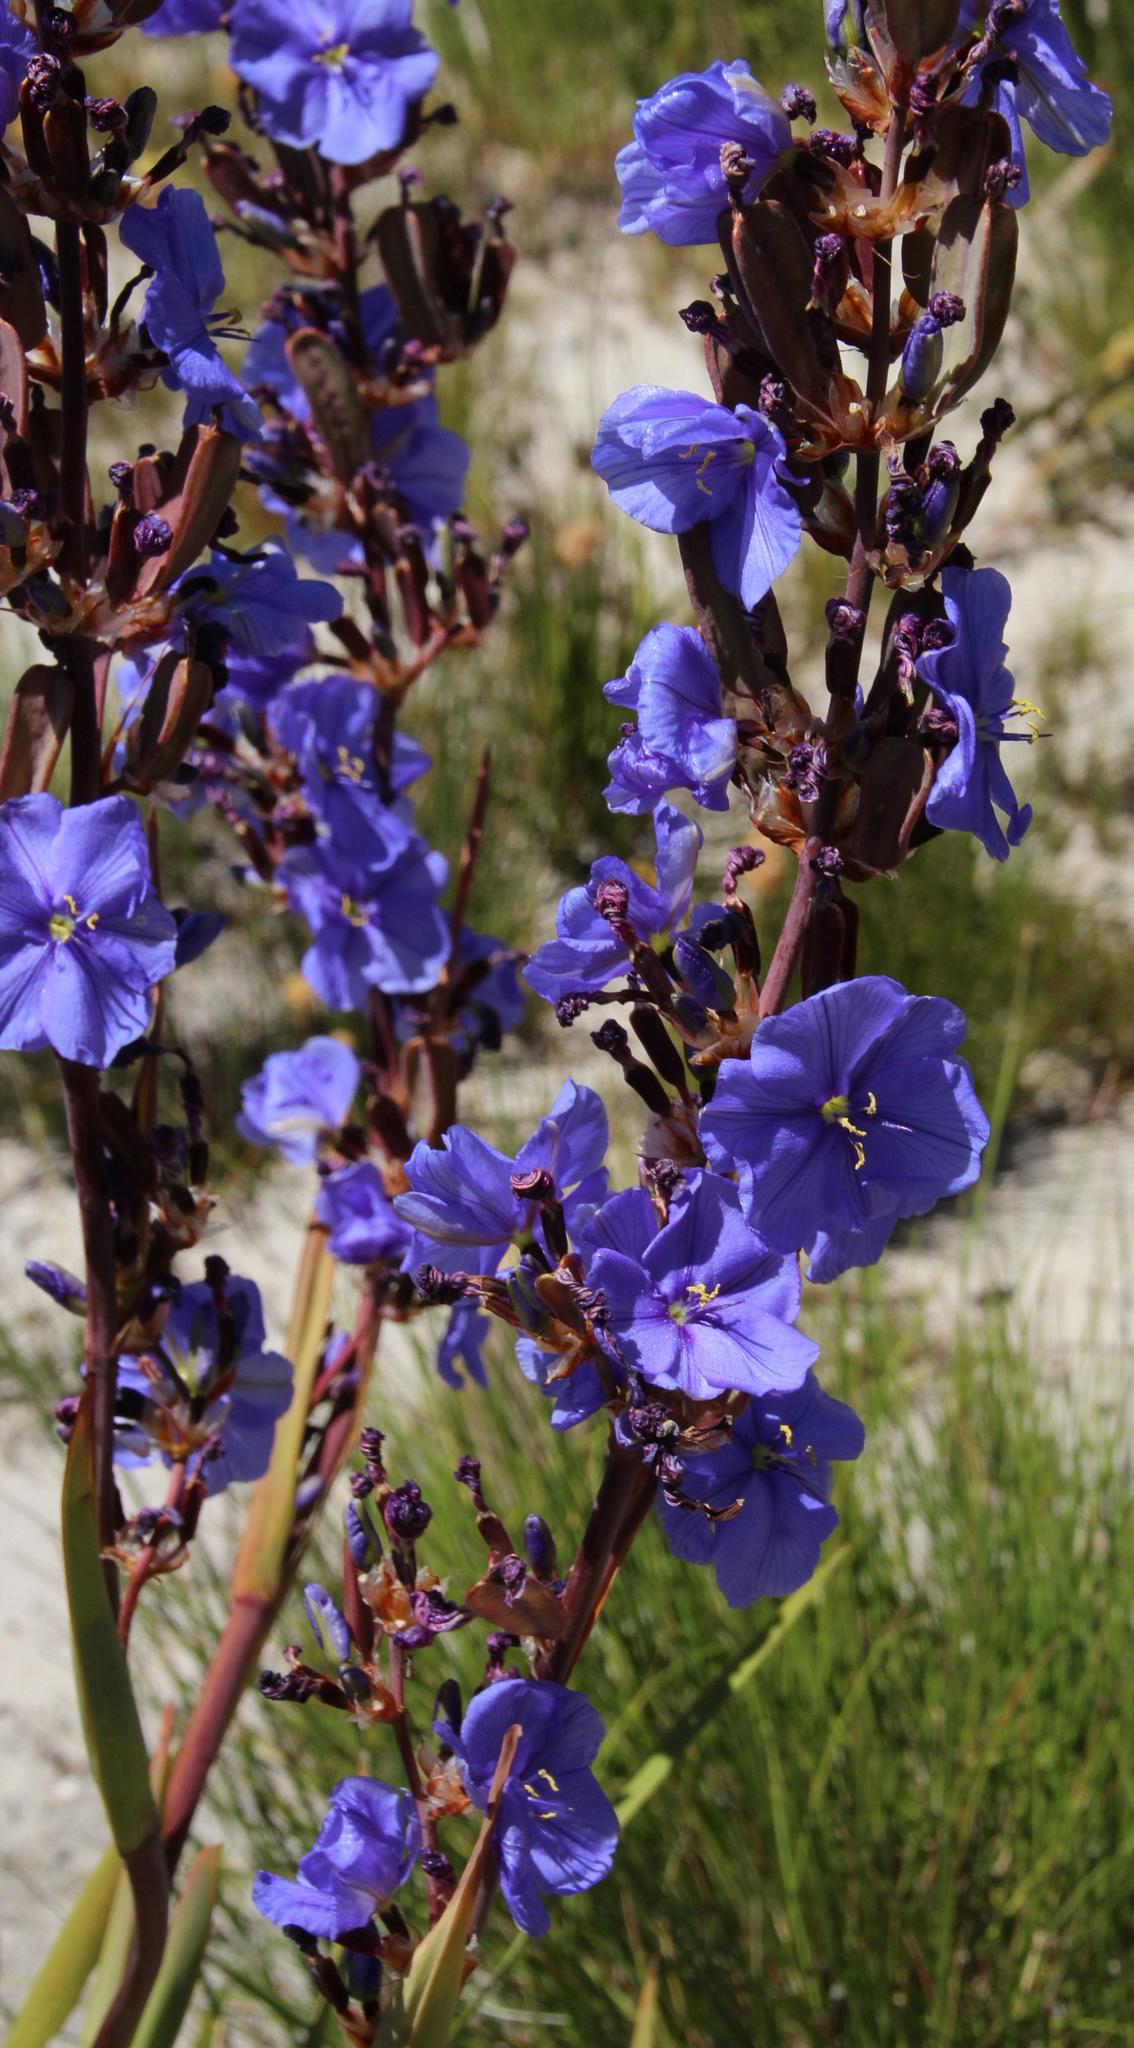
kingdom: Plantae
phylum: Tracheophyta
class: Liliopsida
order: Asparagales
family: Iridaceae
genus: Aristea
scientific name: Aristea capitata
